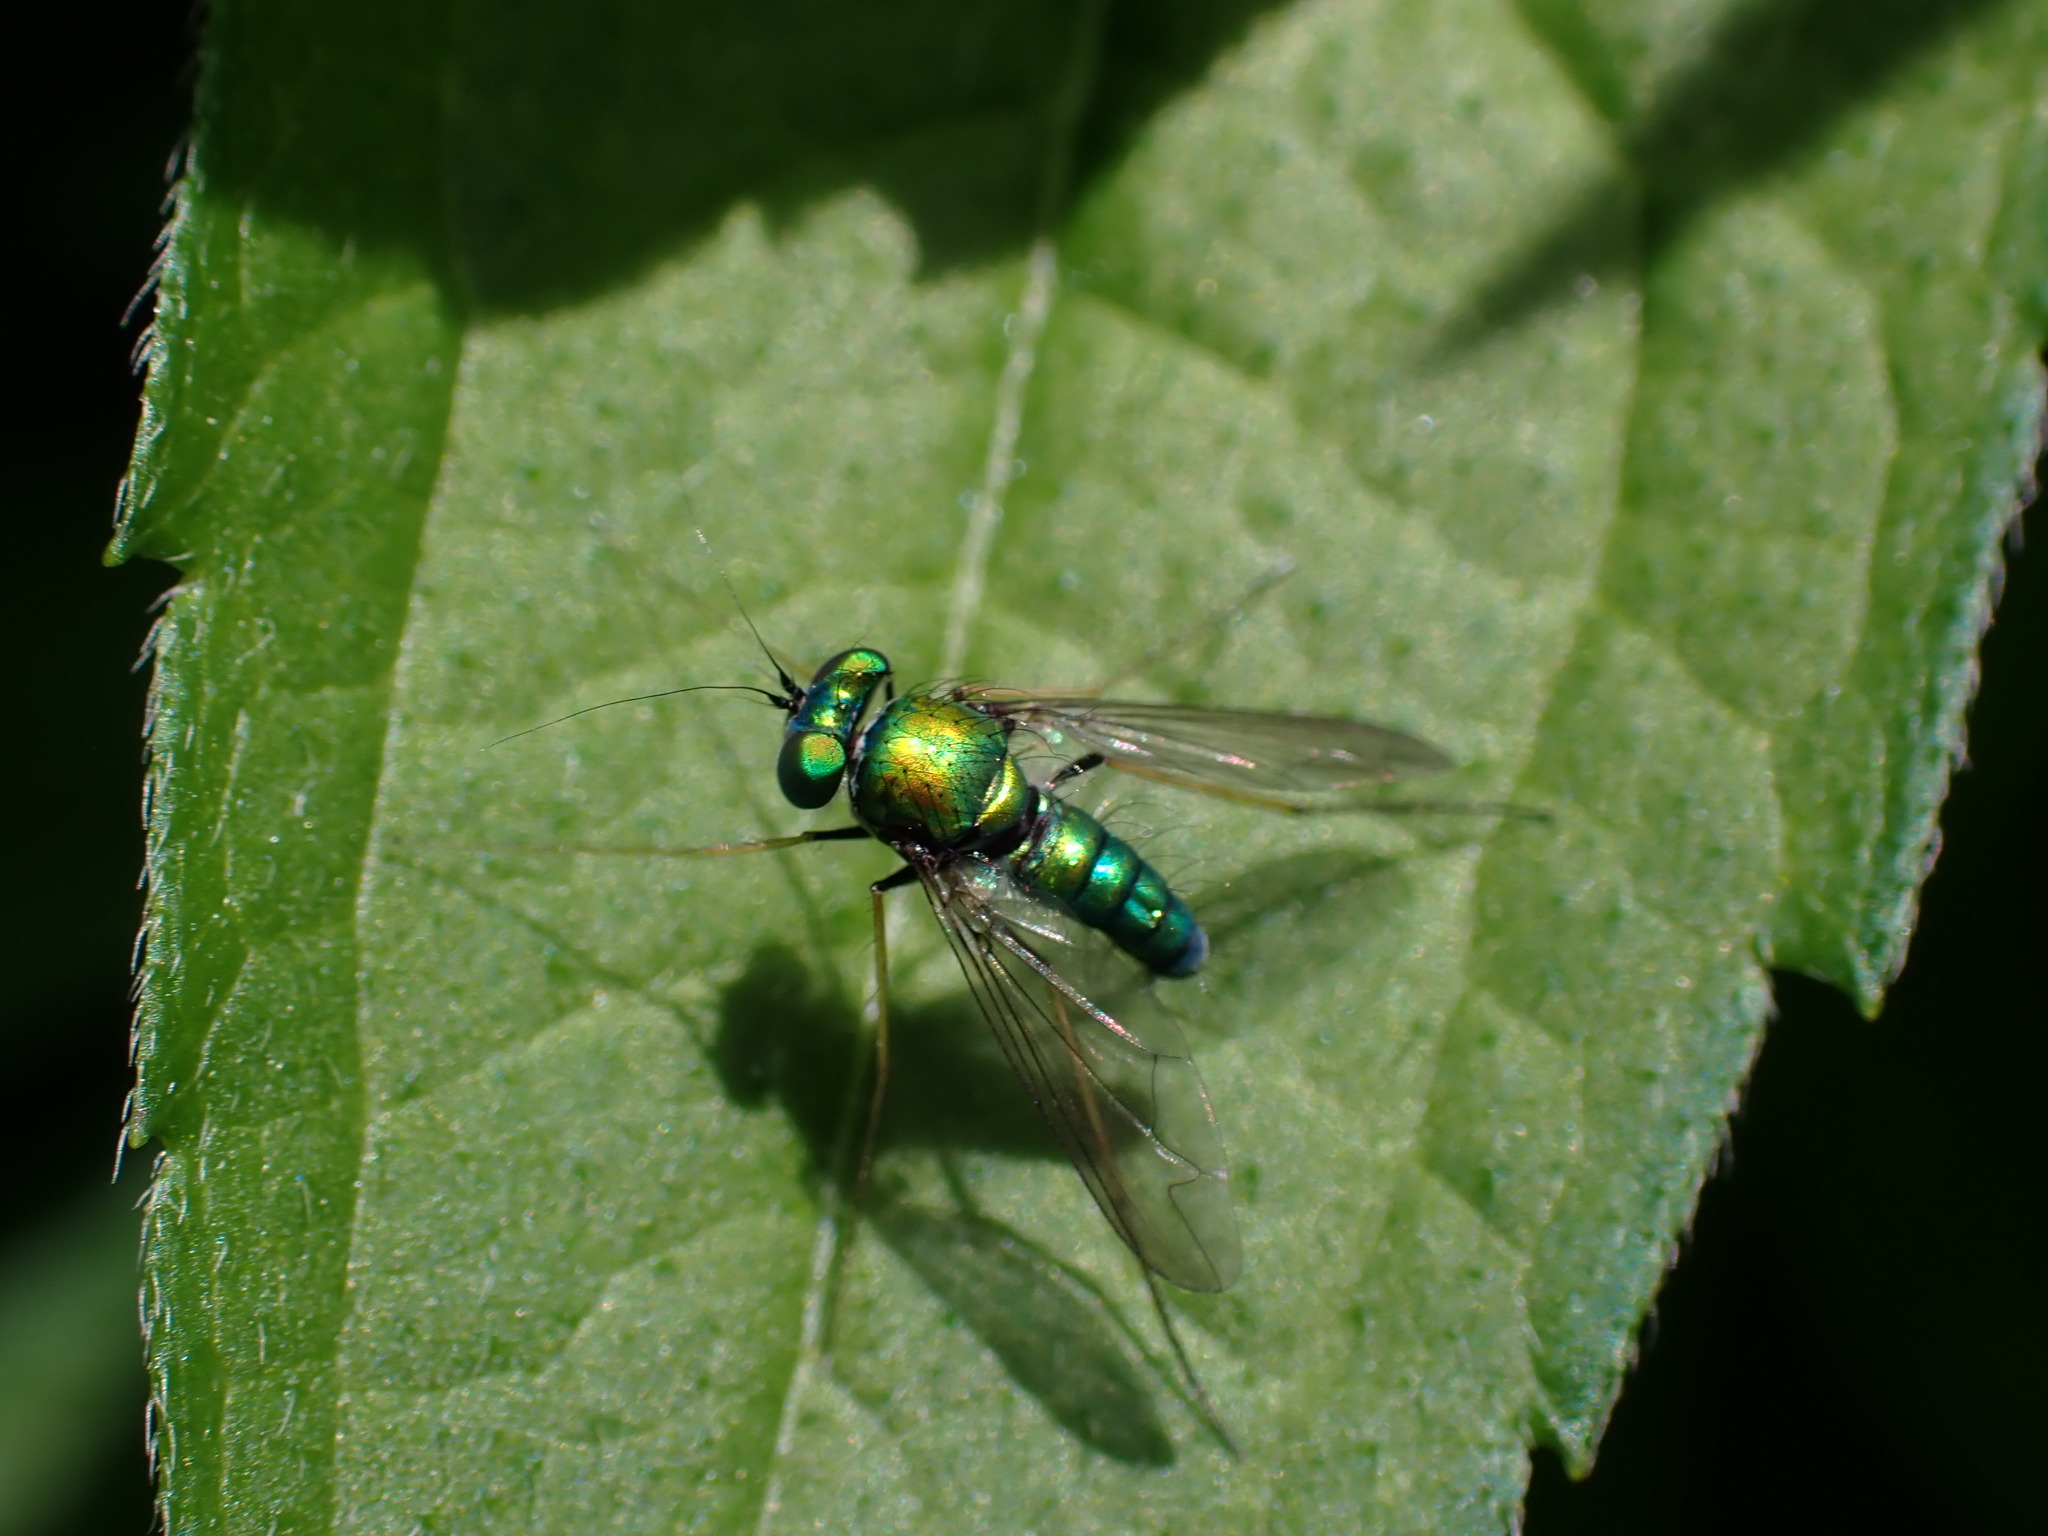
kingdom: Animalia
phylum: Arthropoda
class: Insecta
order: Diptera
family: Dolichopodidae
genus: Condylostylus
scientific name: Condylostylus comatus
